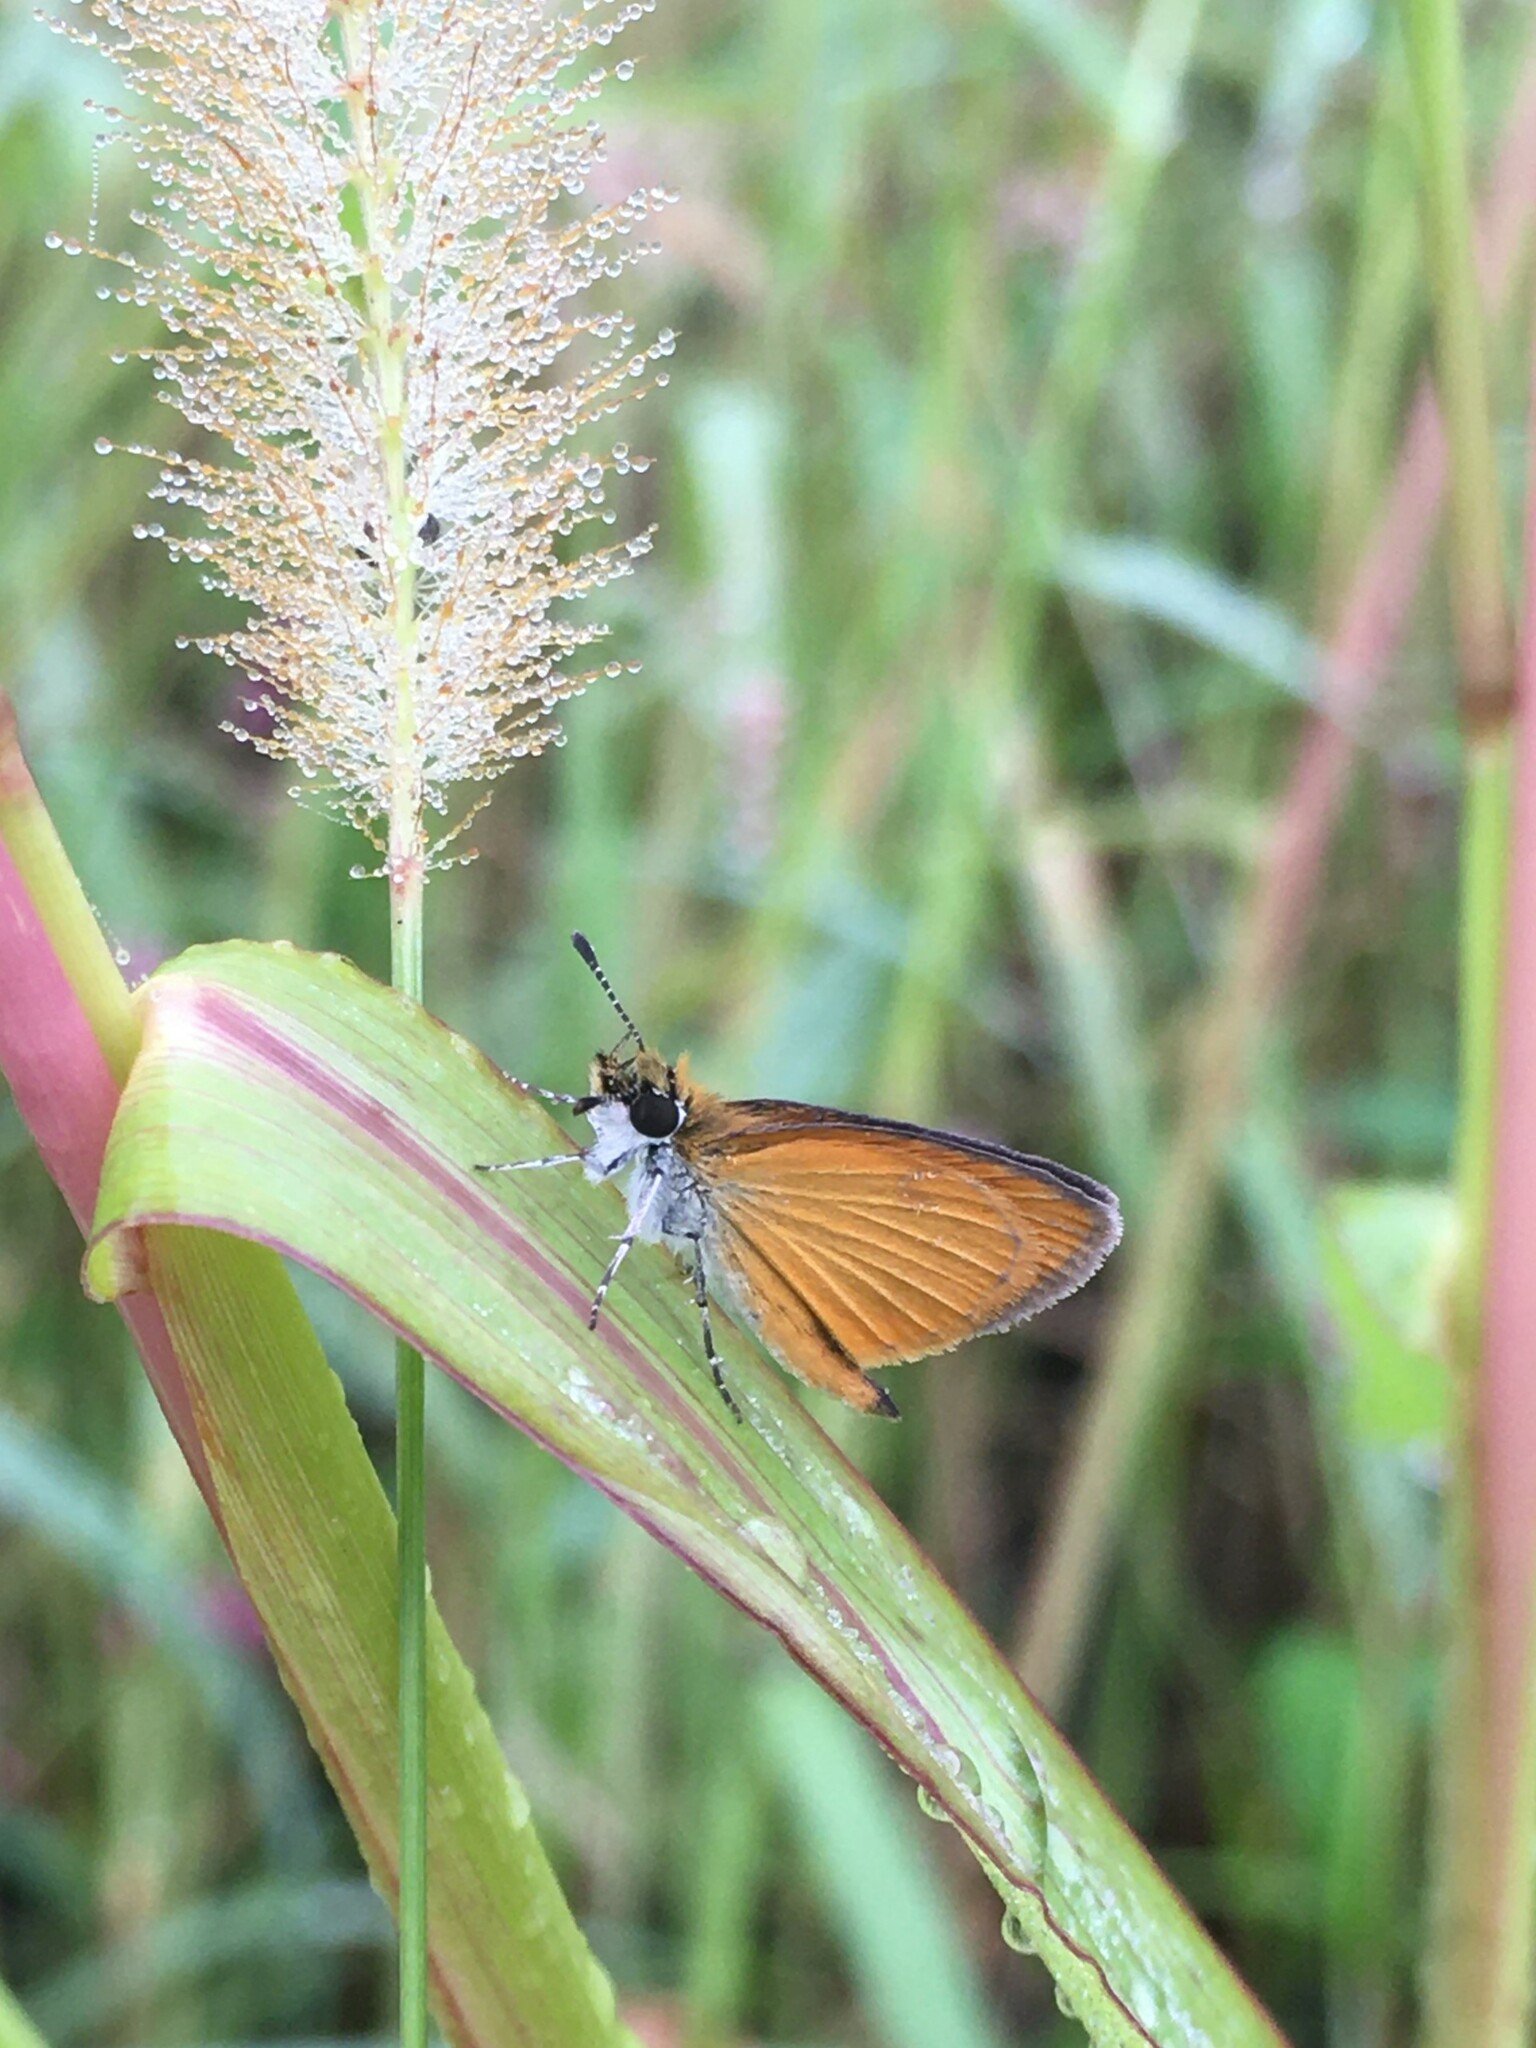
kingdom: Animalia
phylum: Arthropoda
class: Insecta
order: Lepidoptera
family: Hesperiidae
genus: Ancyloxypha
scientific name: Ancyloxypha numitor
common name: Least skipper
